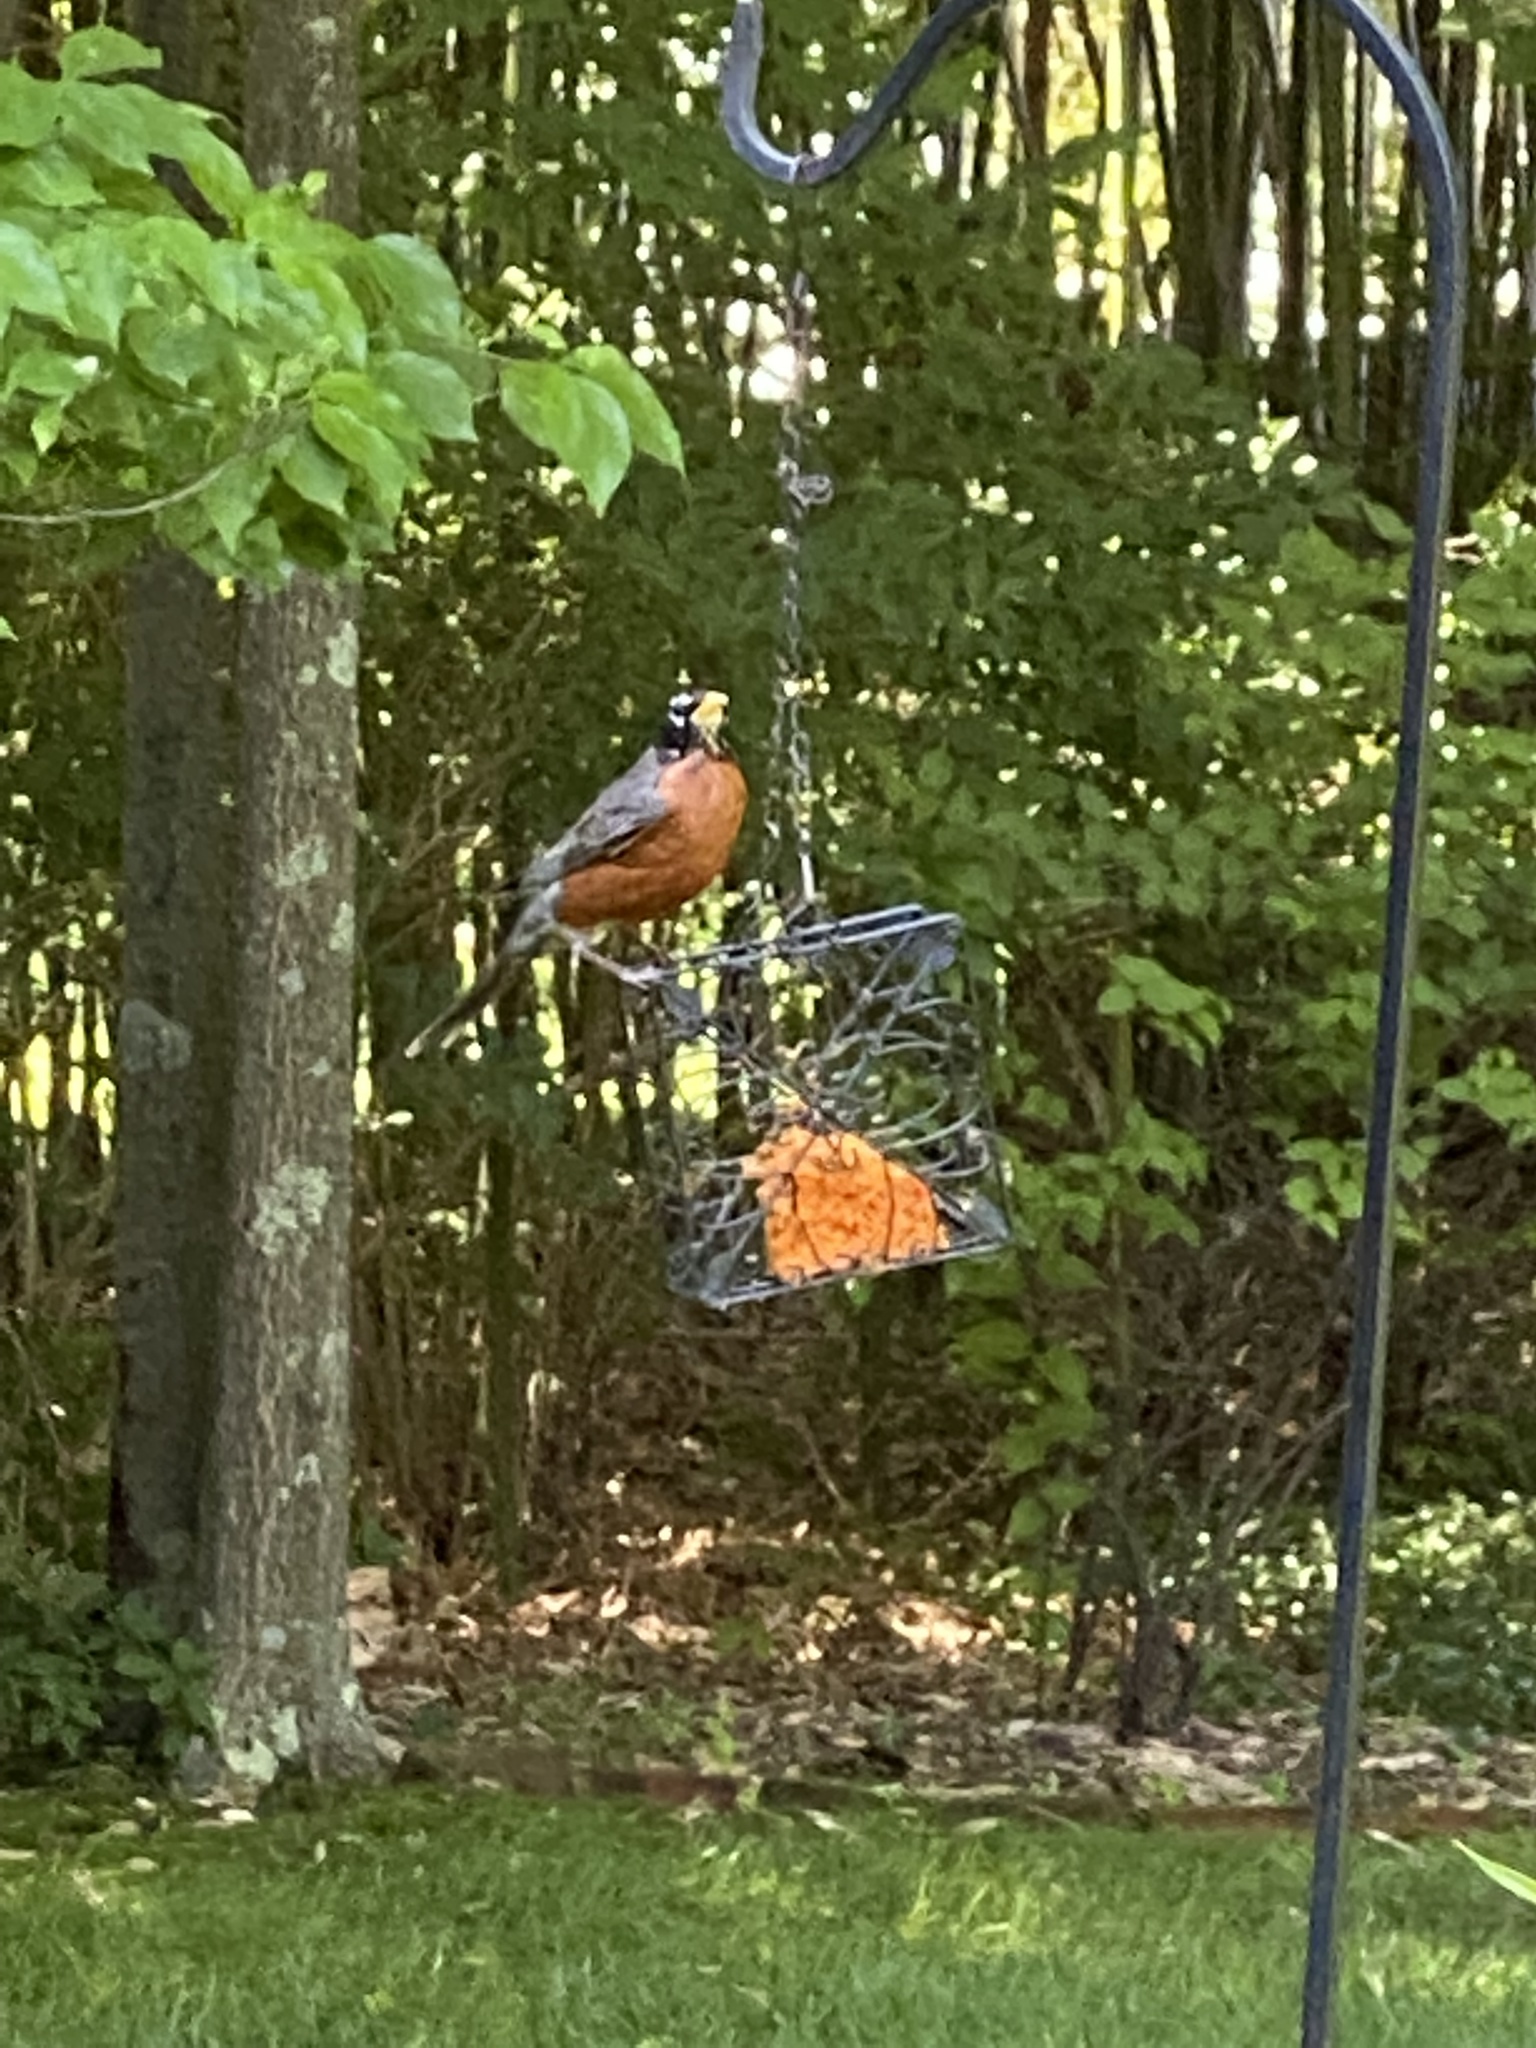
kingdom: Animalia
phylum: Chordata
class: Aves
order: Passeriformes
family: Turdidae
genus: Turdus
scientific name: Turdus migratorius
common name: American robin
